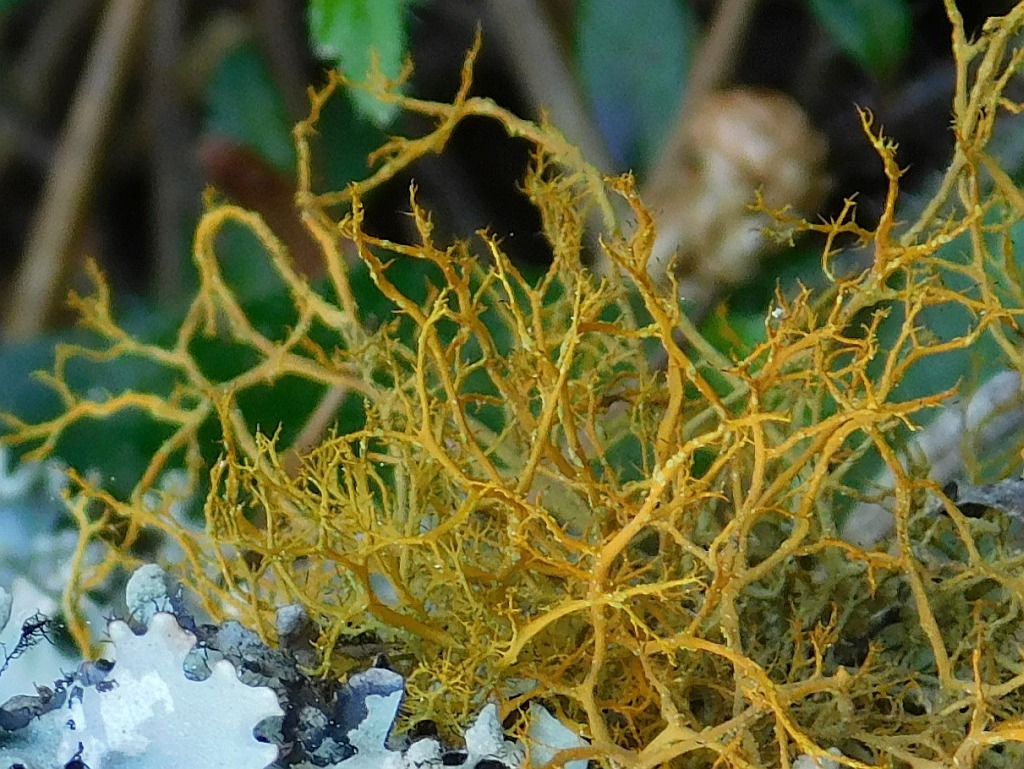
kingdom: Fungi
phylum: Ascomycota
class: Lecanoromycetes
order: Teloschistales
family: Teloschistaceae
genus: Teloschistes
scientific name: Teloschistes flavicans
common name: Golden hair-lichen
